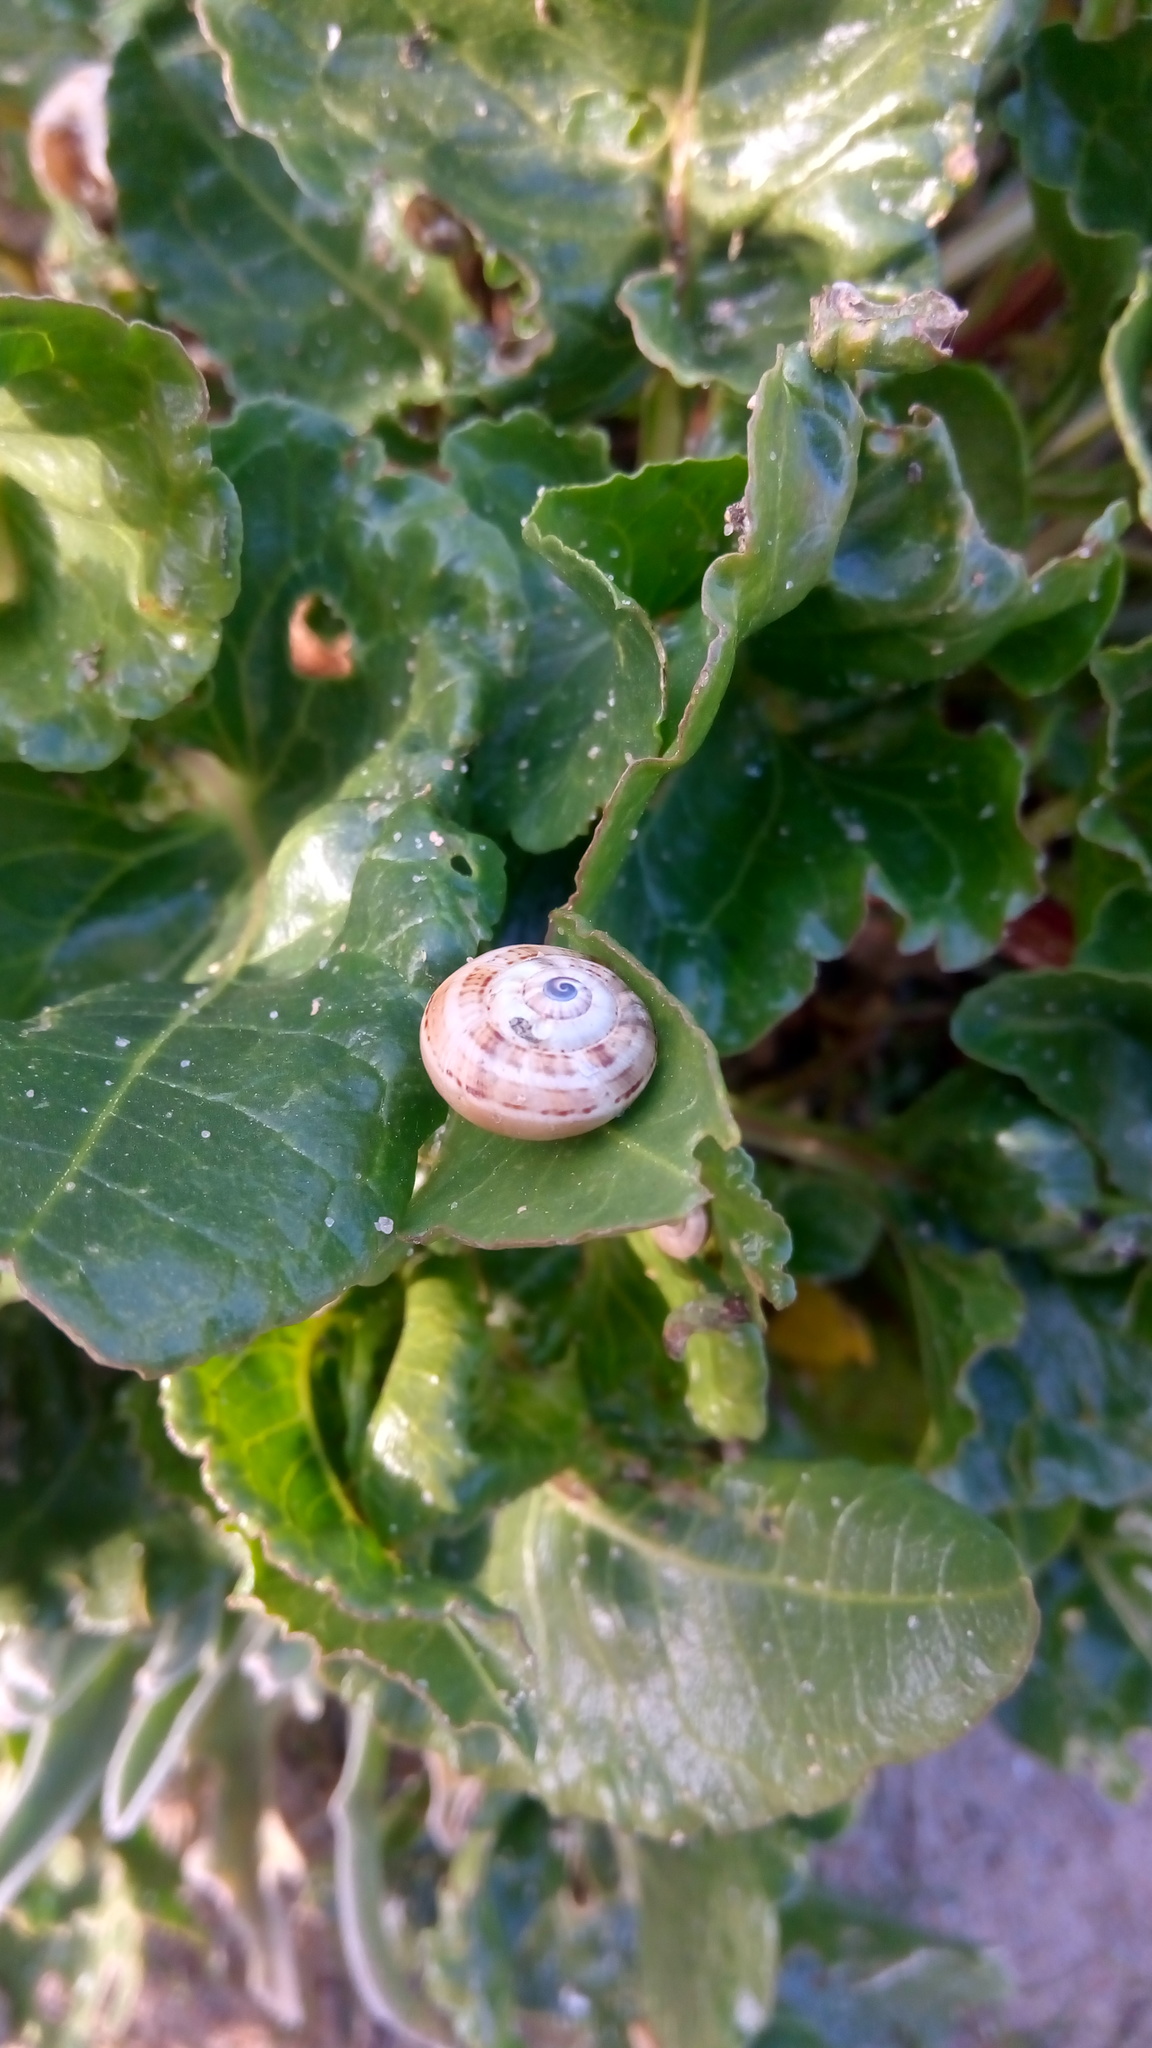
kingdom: Animalia
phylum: Mollusca
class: Gastropoda
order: Stylommatophora
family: Helicidae
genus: Theba
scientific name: Theba pisana
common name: White snail
